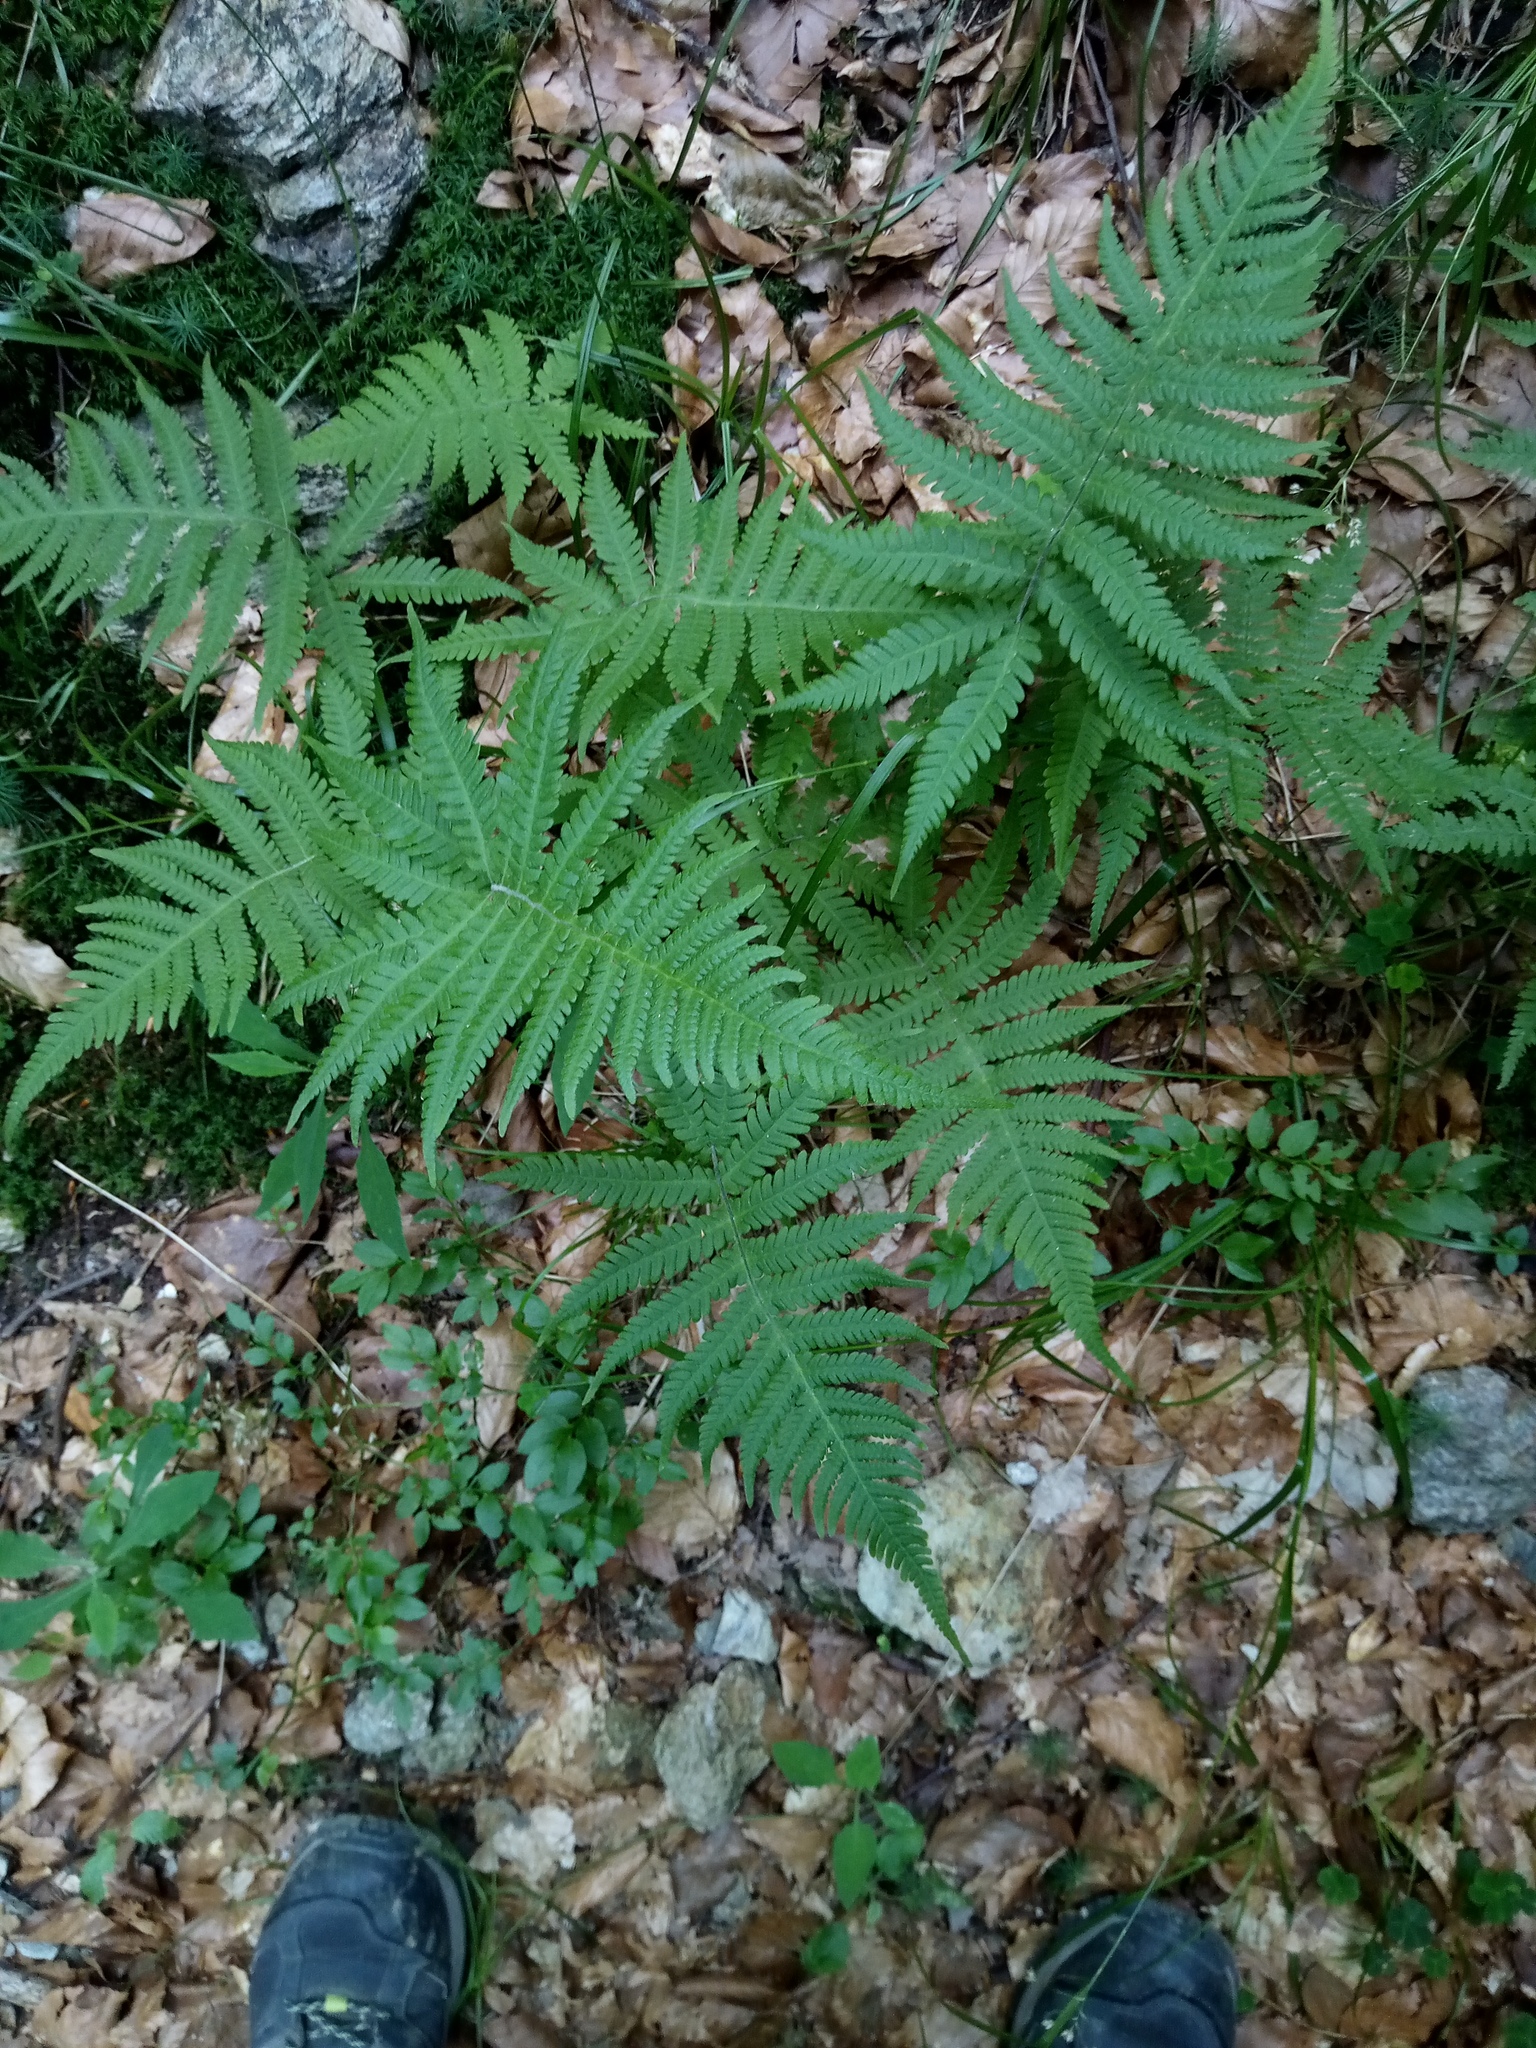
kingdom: Plantae
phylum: Tracheophyta
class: Polypodiopsida
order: Polypodiales
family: Thelypteridaceae
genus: Phegopteris
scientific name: Phegopteris connectilis
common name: Beech fern
